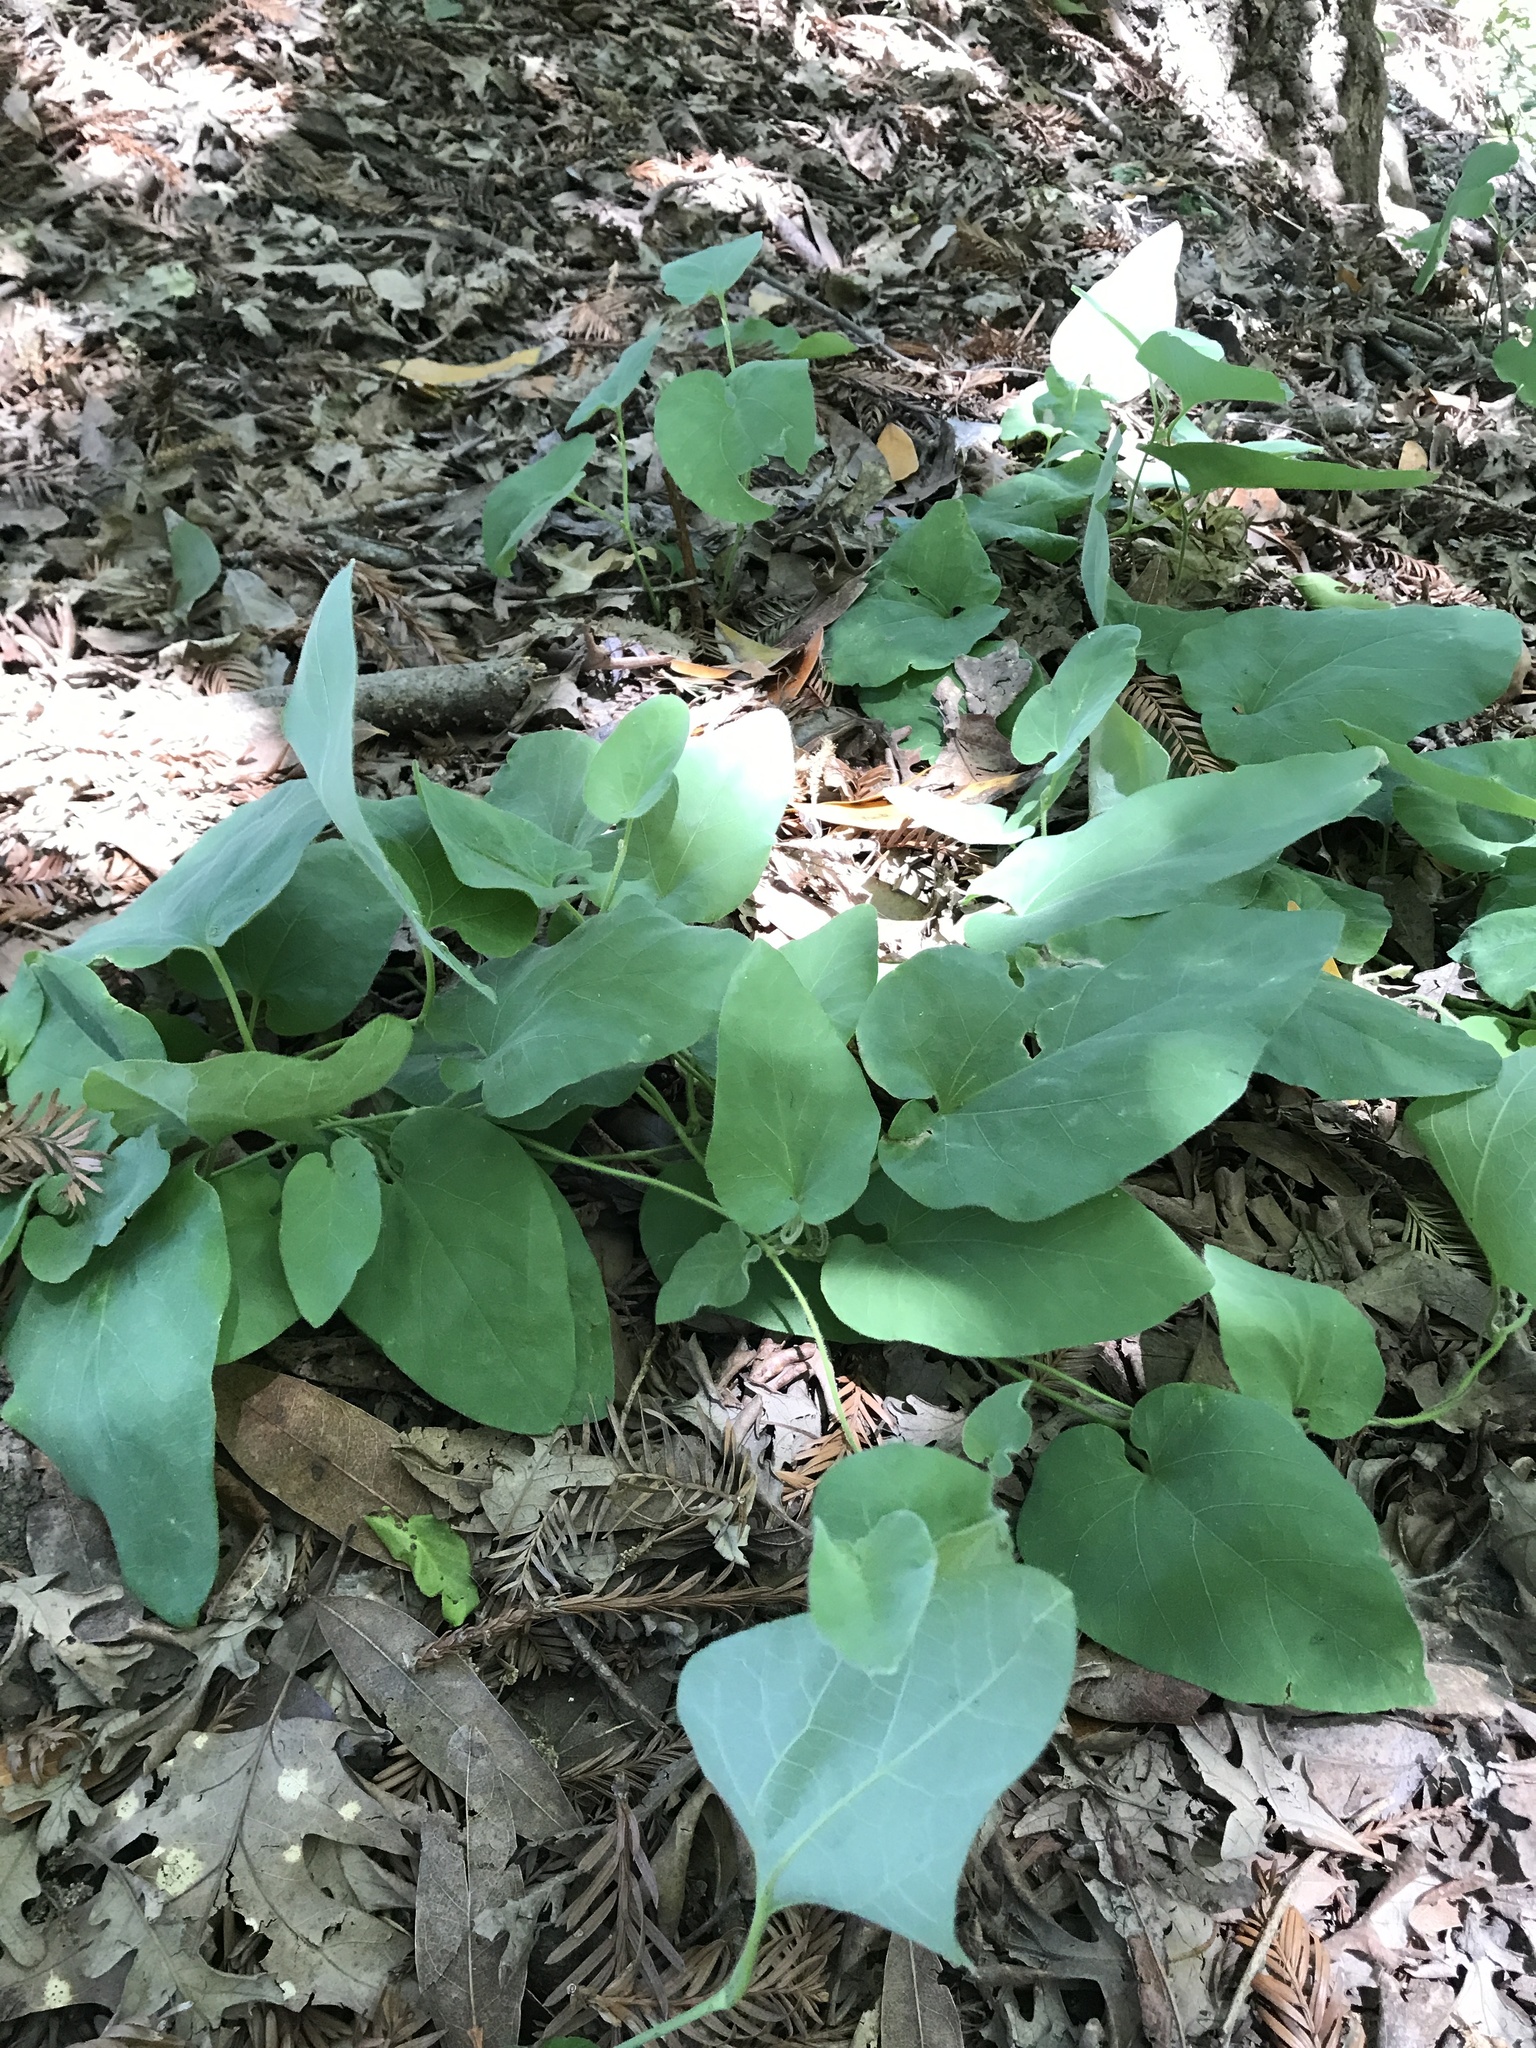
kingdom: Plantae
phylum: Tracheophyta
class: Magnoliopsida
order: Piperales
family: Aristolochiaceae
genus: Isotrema
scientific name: Isotrema californicum
